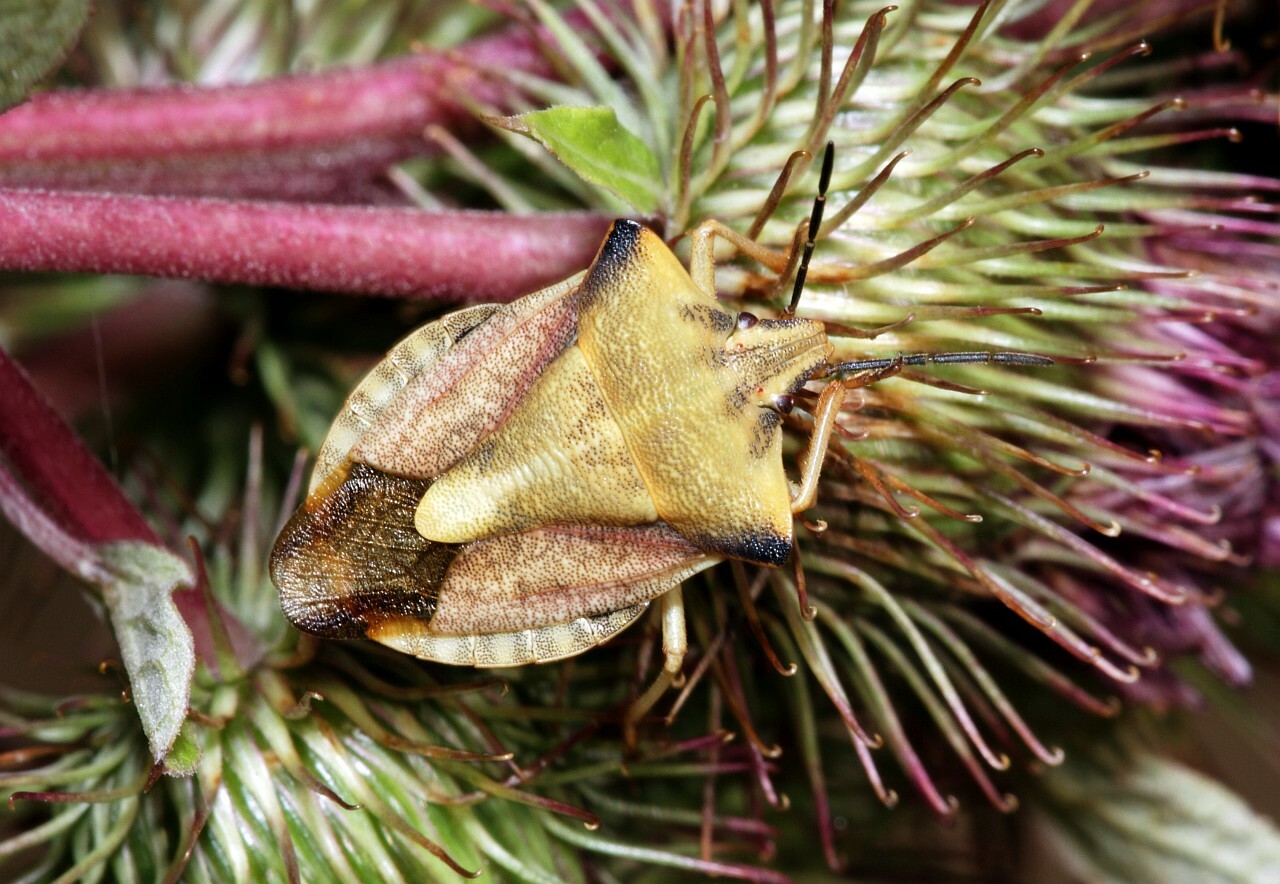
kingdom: Animalia
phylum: Arthropoda
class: Insecta
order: Hemiptera
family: Pentatomidae
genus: Carpocoris
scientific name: Carpocoris fuscispinus
